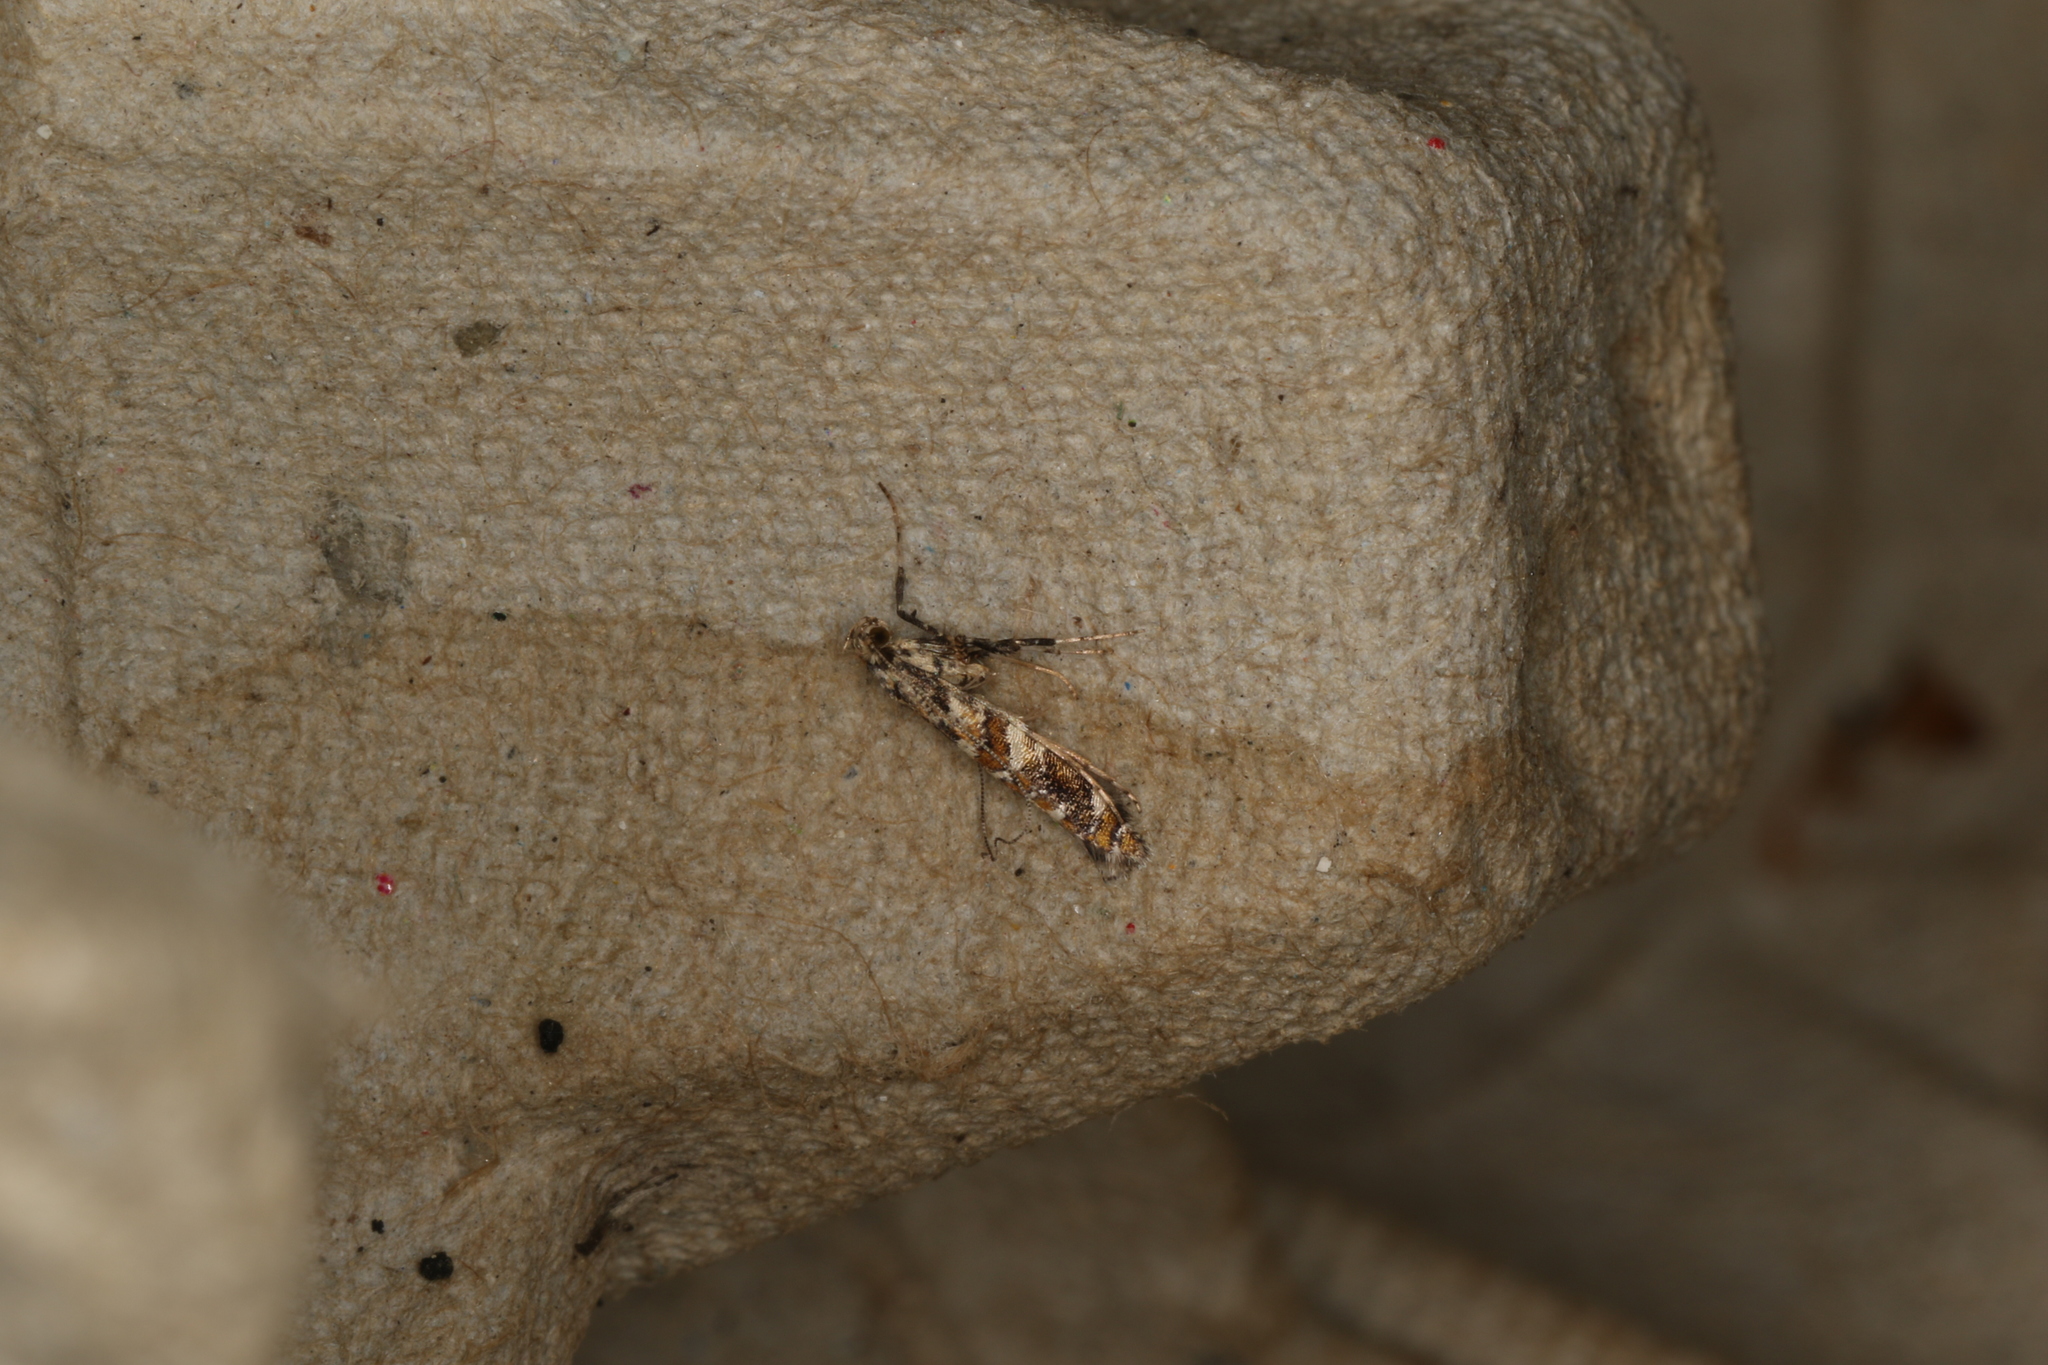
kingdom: Animalia
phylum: Arthropoda
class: Insecta
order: Lepidoptera
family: Gracillariidae
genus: Gracillaria
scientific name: Gracillaria syringella
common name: Common slender
